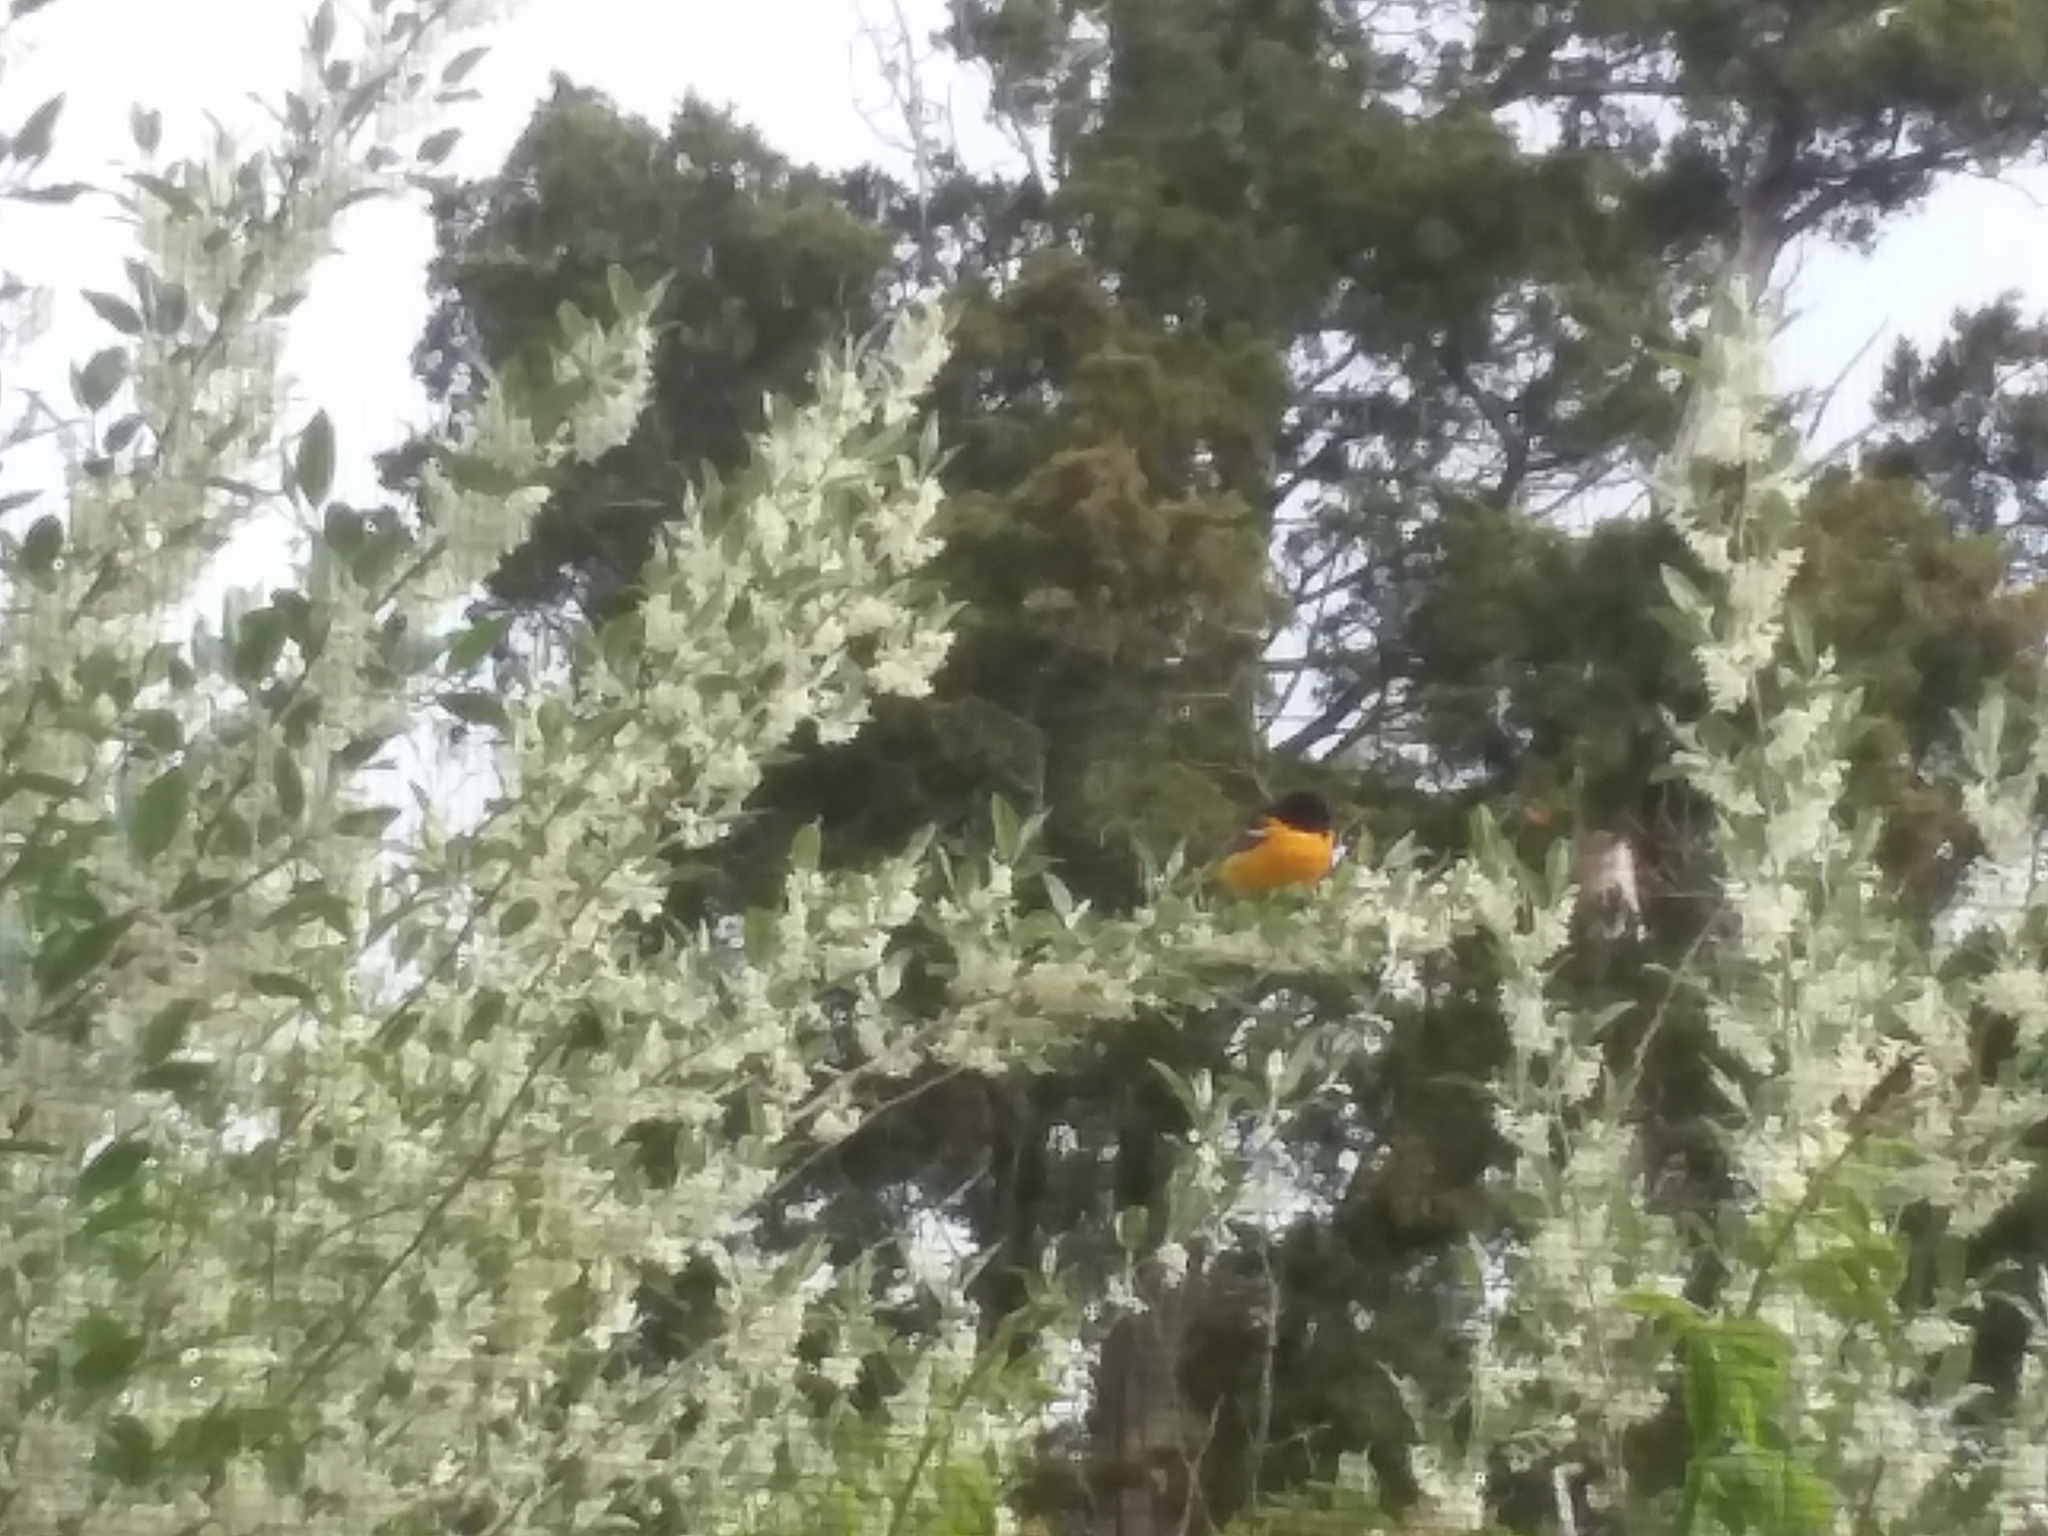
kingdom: Animalia
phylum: Chordata
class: Aves
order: Passeriformes
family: Icteridae
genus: Icterus
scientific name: Icterus galbula
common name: Baltimore oriole
